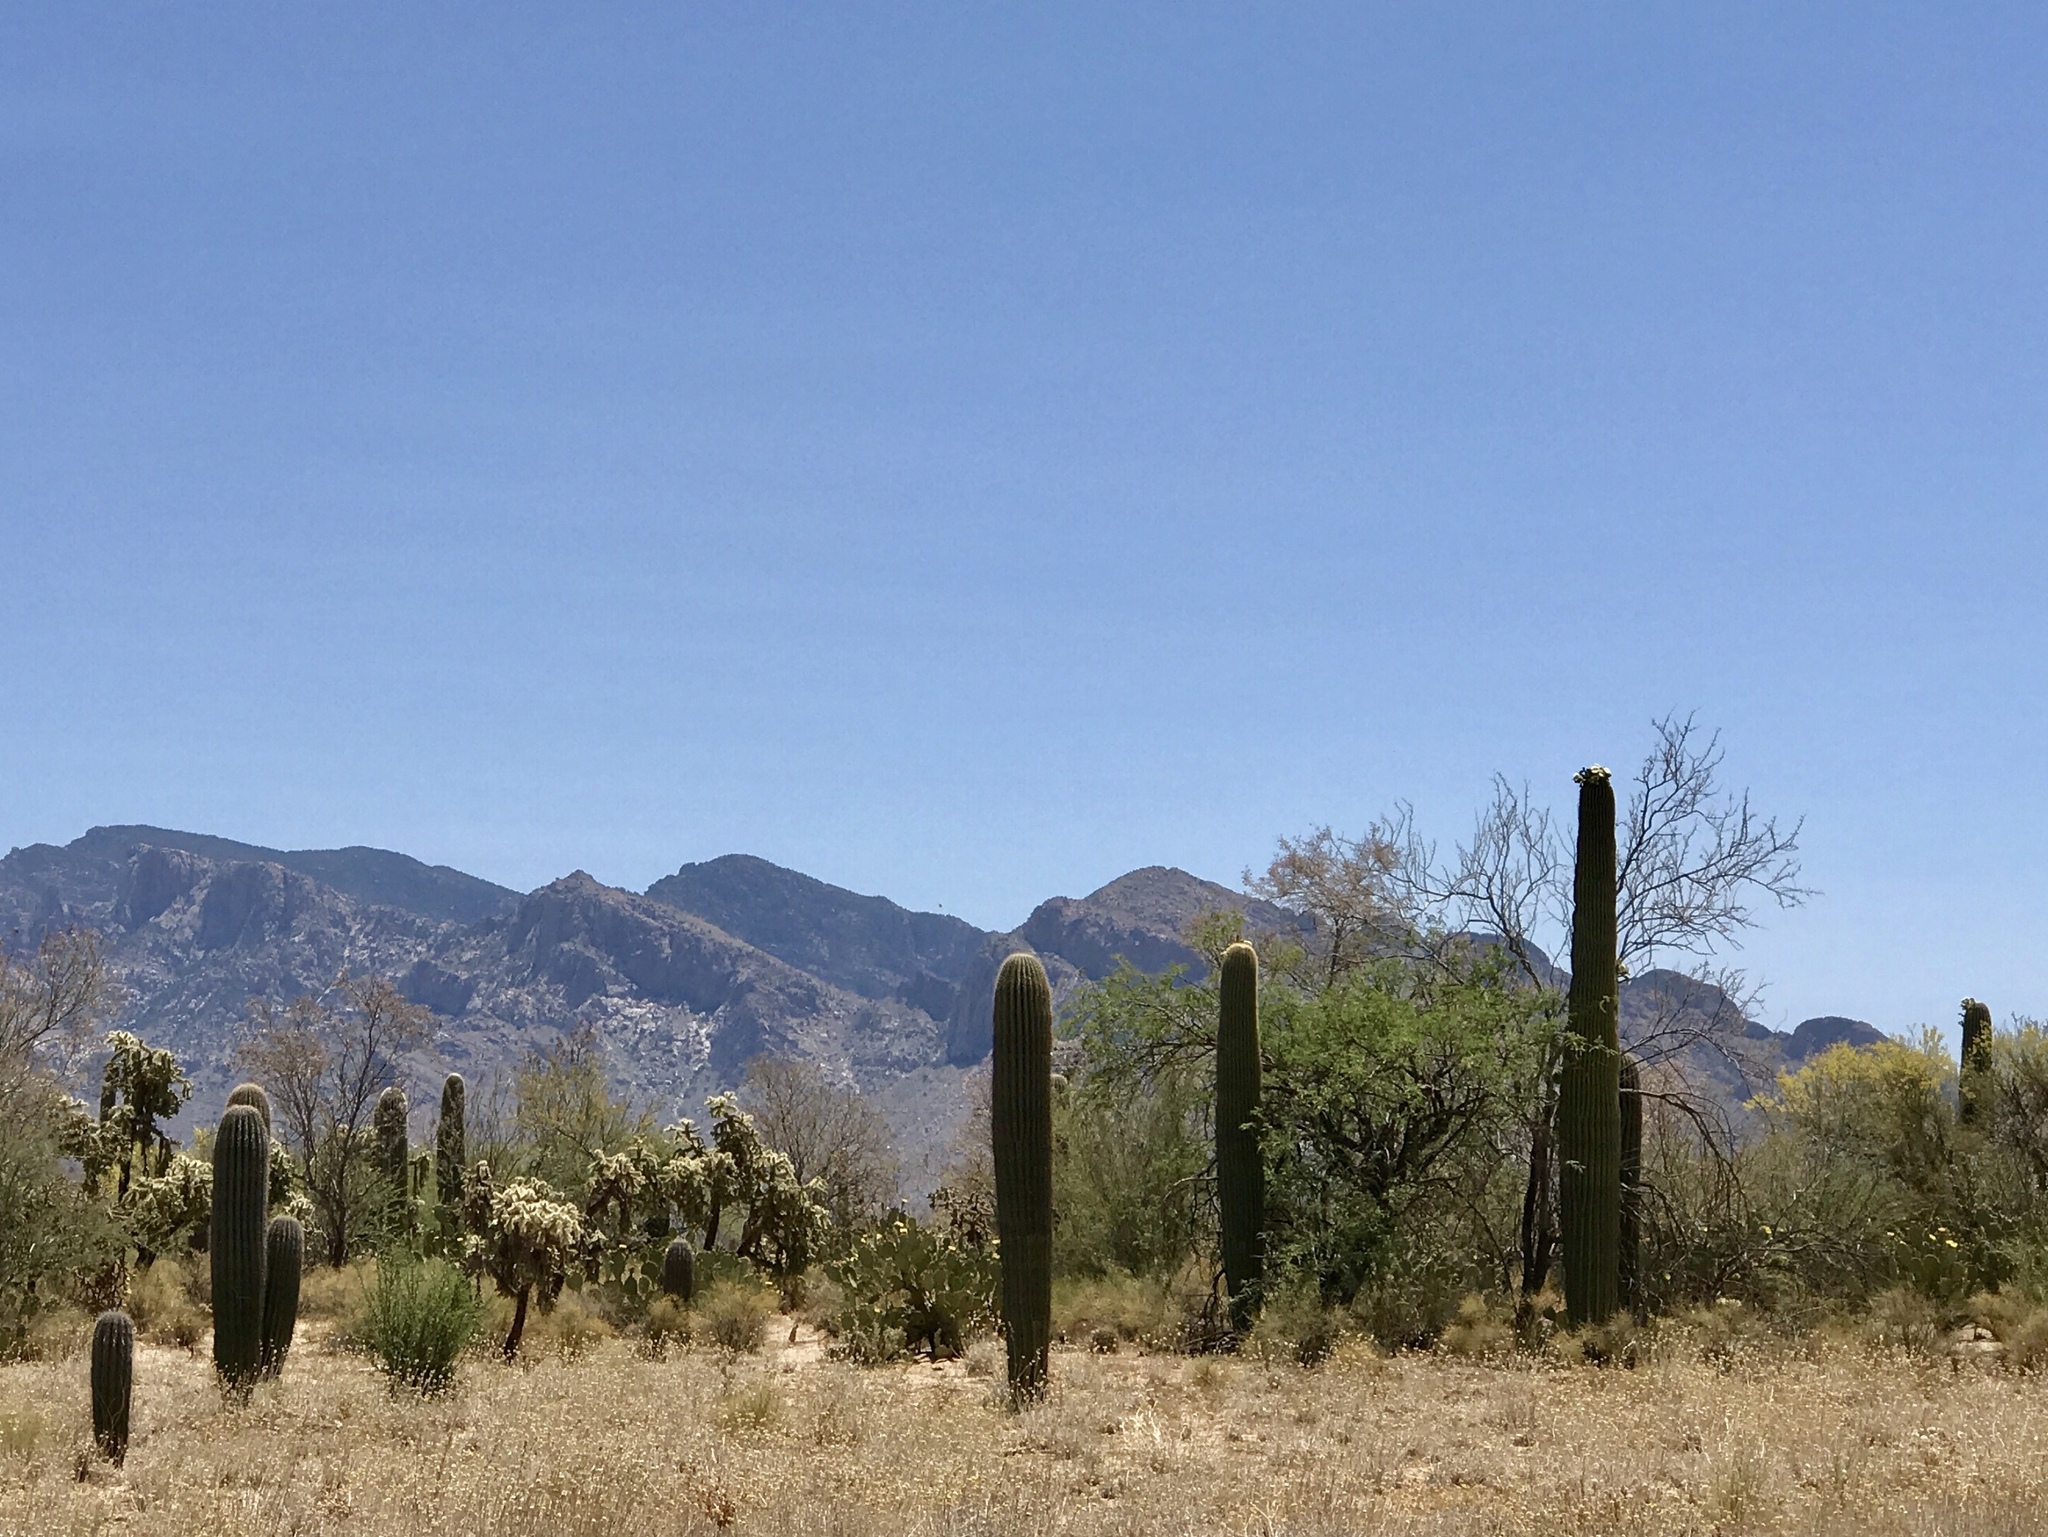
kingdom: Plantae
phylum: Tracheophyta
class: Magnoliopsida
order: Caryophyllales
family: Cactaceae
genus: Carnegiea
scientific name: Carnegiea gigantea
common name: Saguaro
